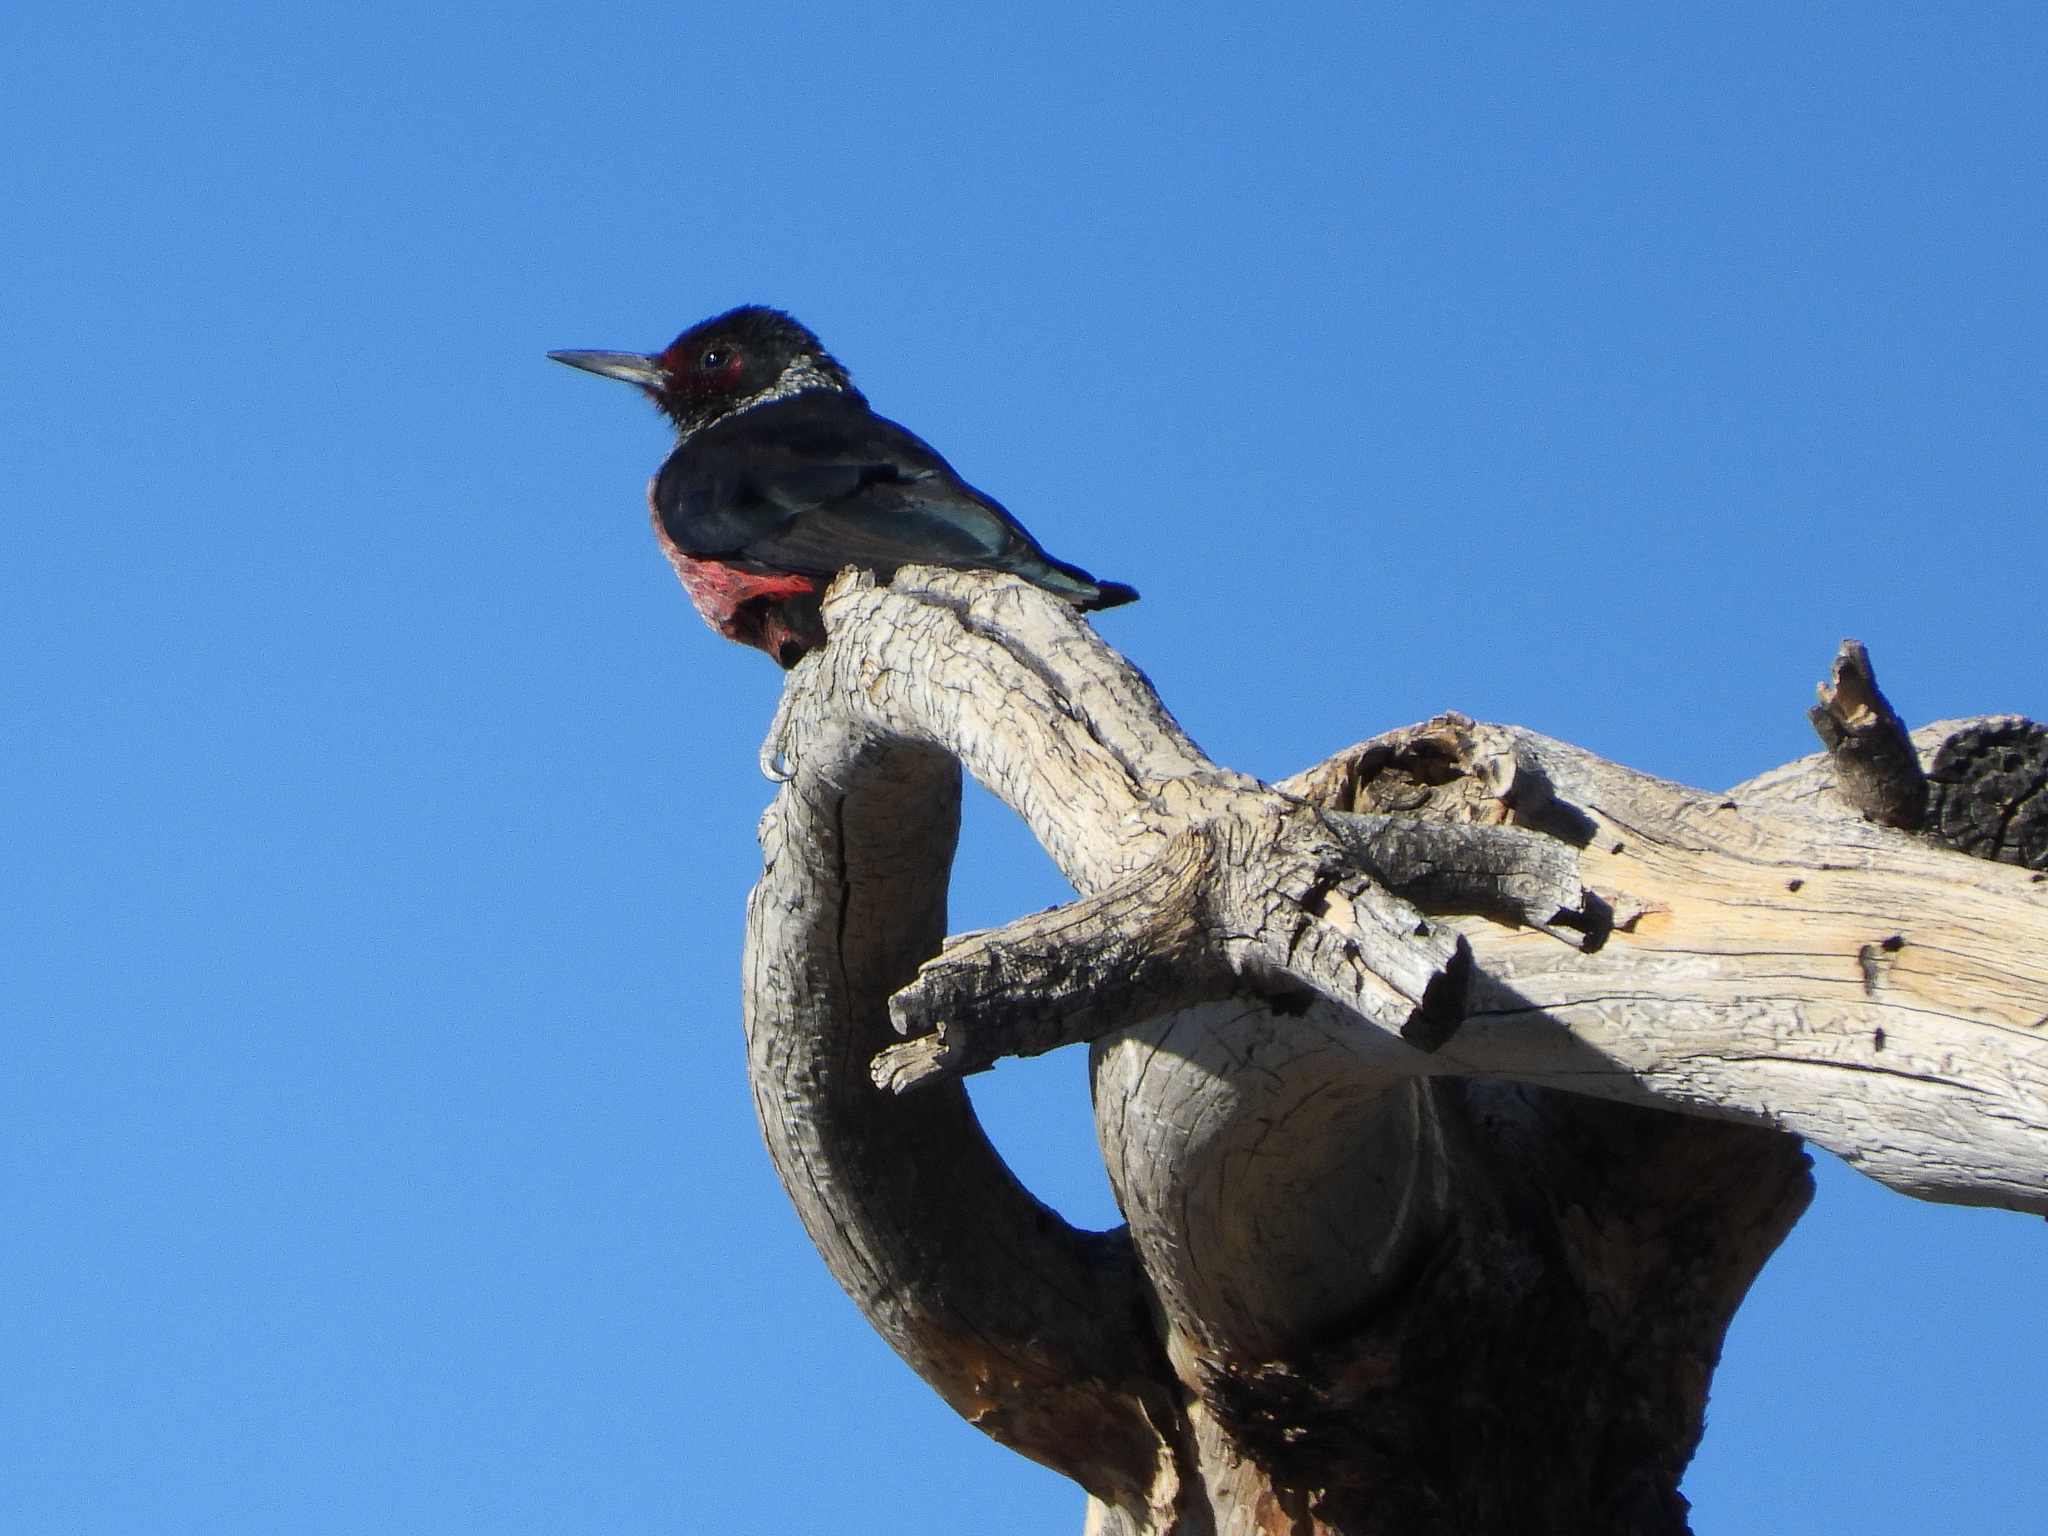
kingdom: Animalia
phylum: Chordata
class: Aves
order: Piciformes
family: Picidae
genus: Melanerpes
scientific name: Melanerpes lewis
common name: Lewis's woodpecker
